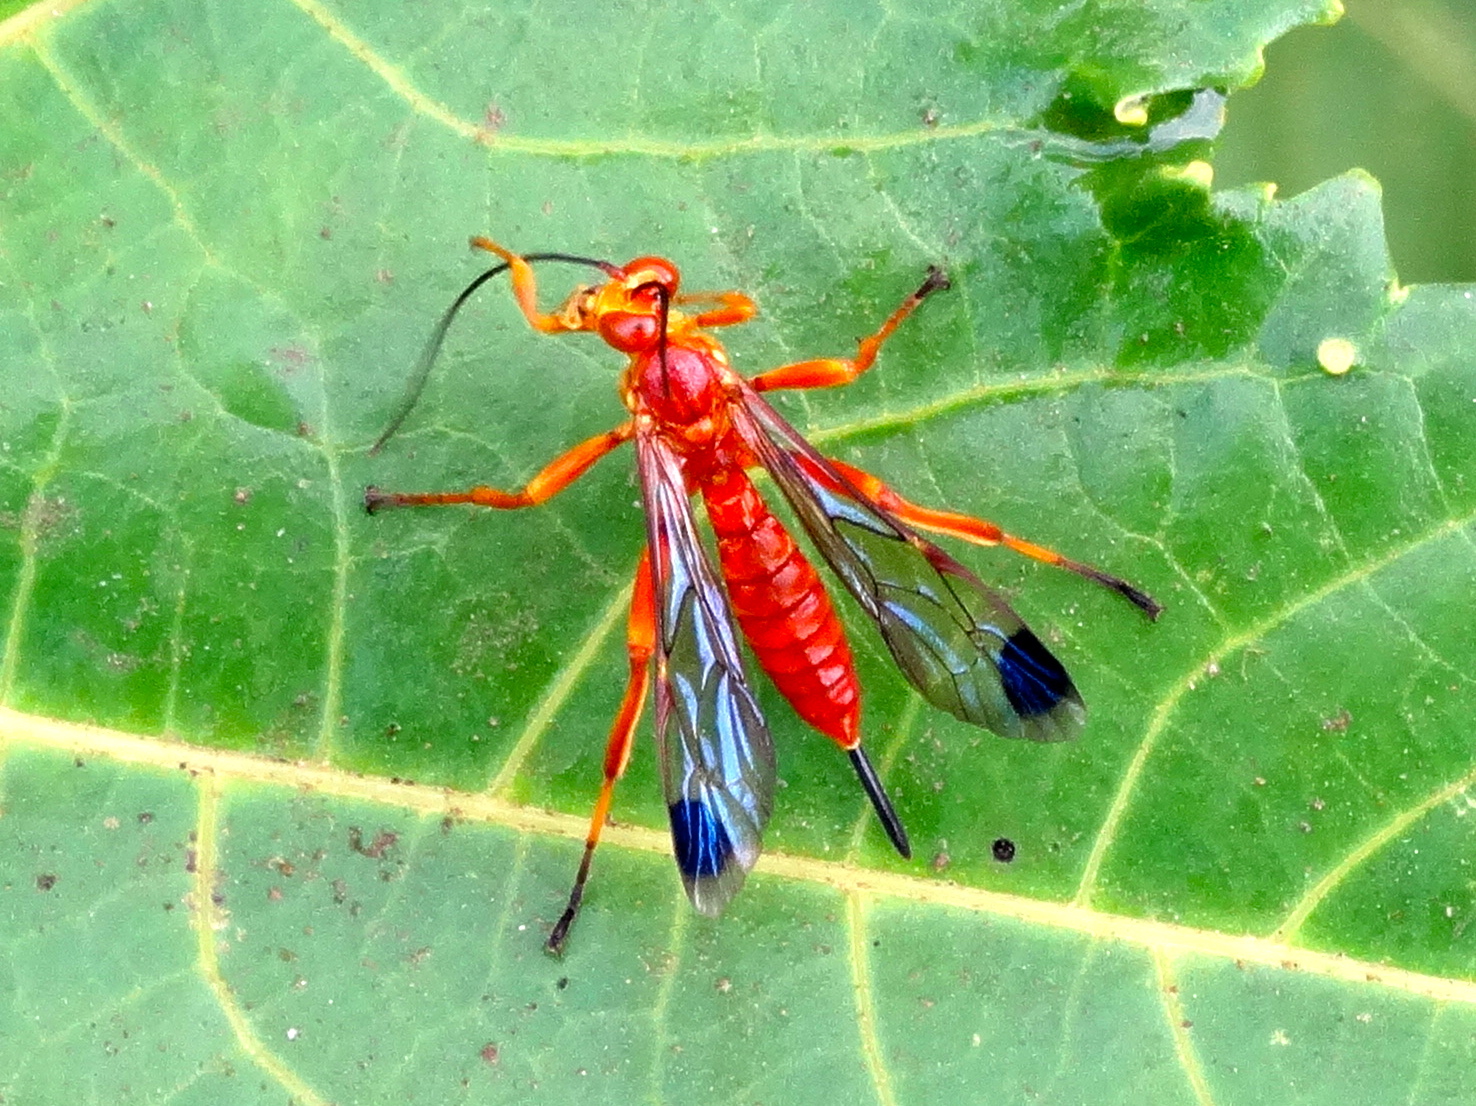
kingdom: Animalia
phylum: Arthropoda
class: Insecta
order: Hymenoptera
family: Ichneumonidae
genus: Neotheronia
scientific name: Neotheronia
